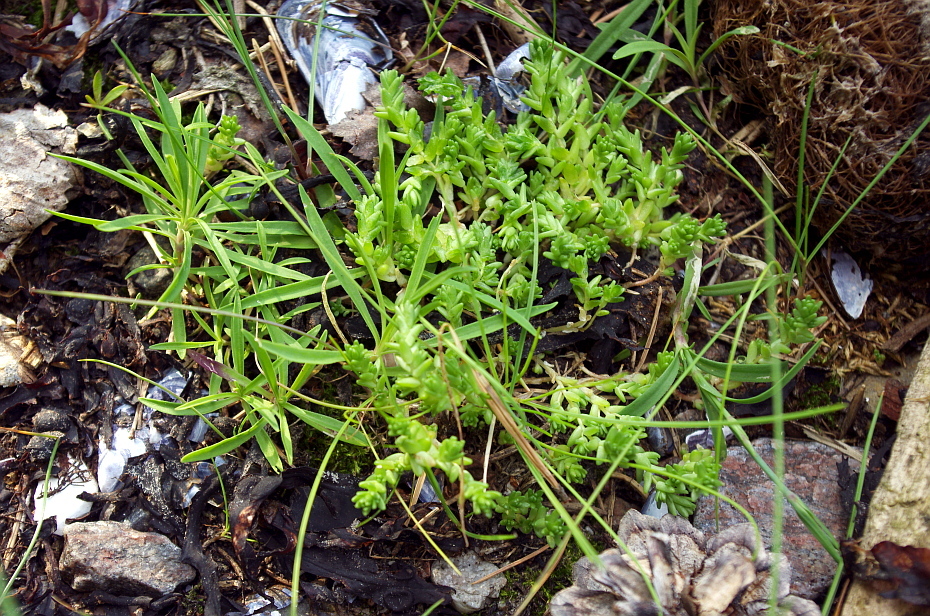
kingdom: Plantae
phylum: Tracheophyta
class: Magnoliopsida
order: Saxifragales
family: Crassulaceae
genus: Sedum
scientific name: Sedum acre
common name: Biting stonecrop
